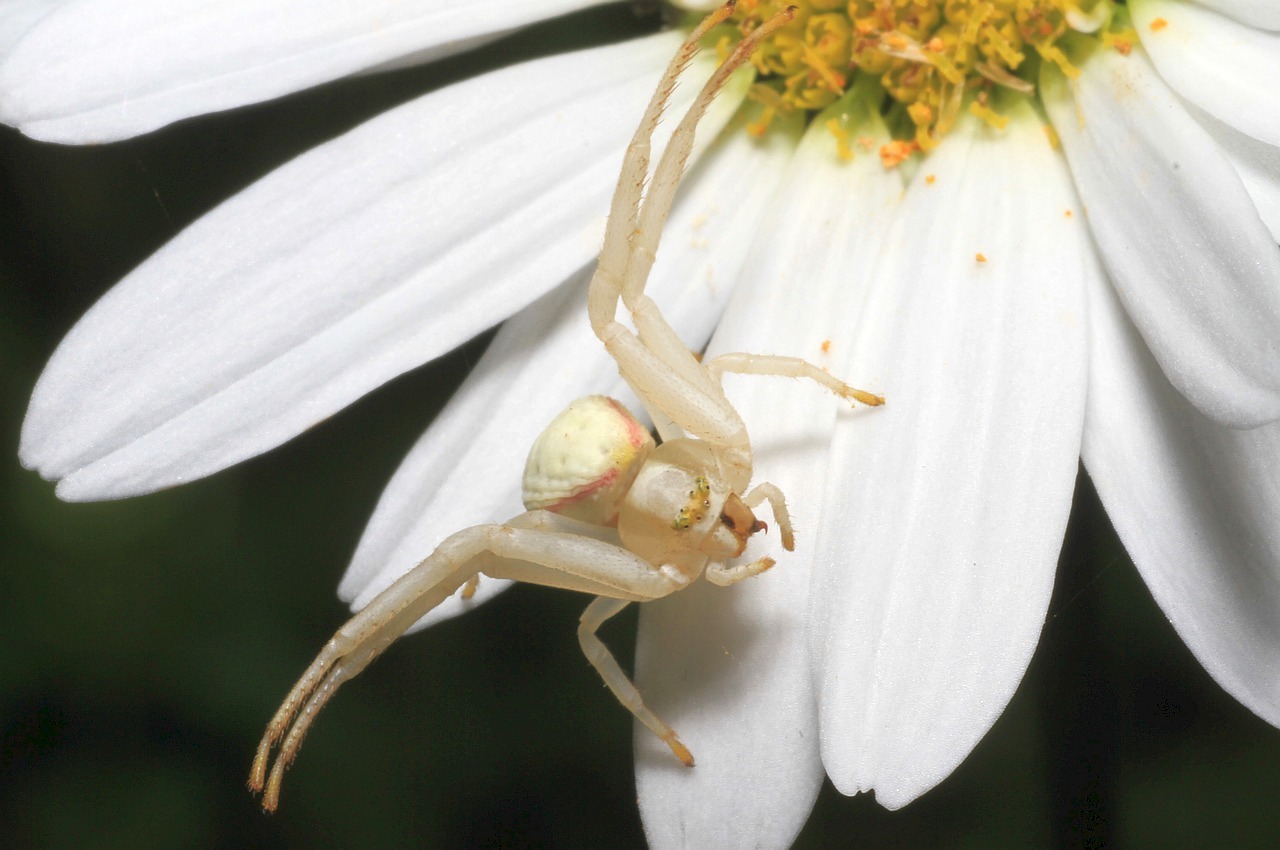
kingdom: Animalia
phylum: Arthropoda
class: Arachnida
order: Araneae
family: Thomisidae
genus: Misumena
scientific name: Misumena vatia
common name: Goldenrod crab spider
